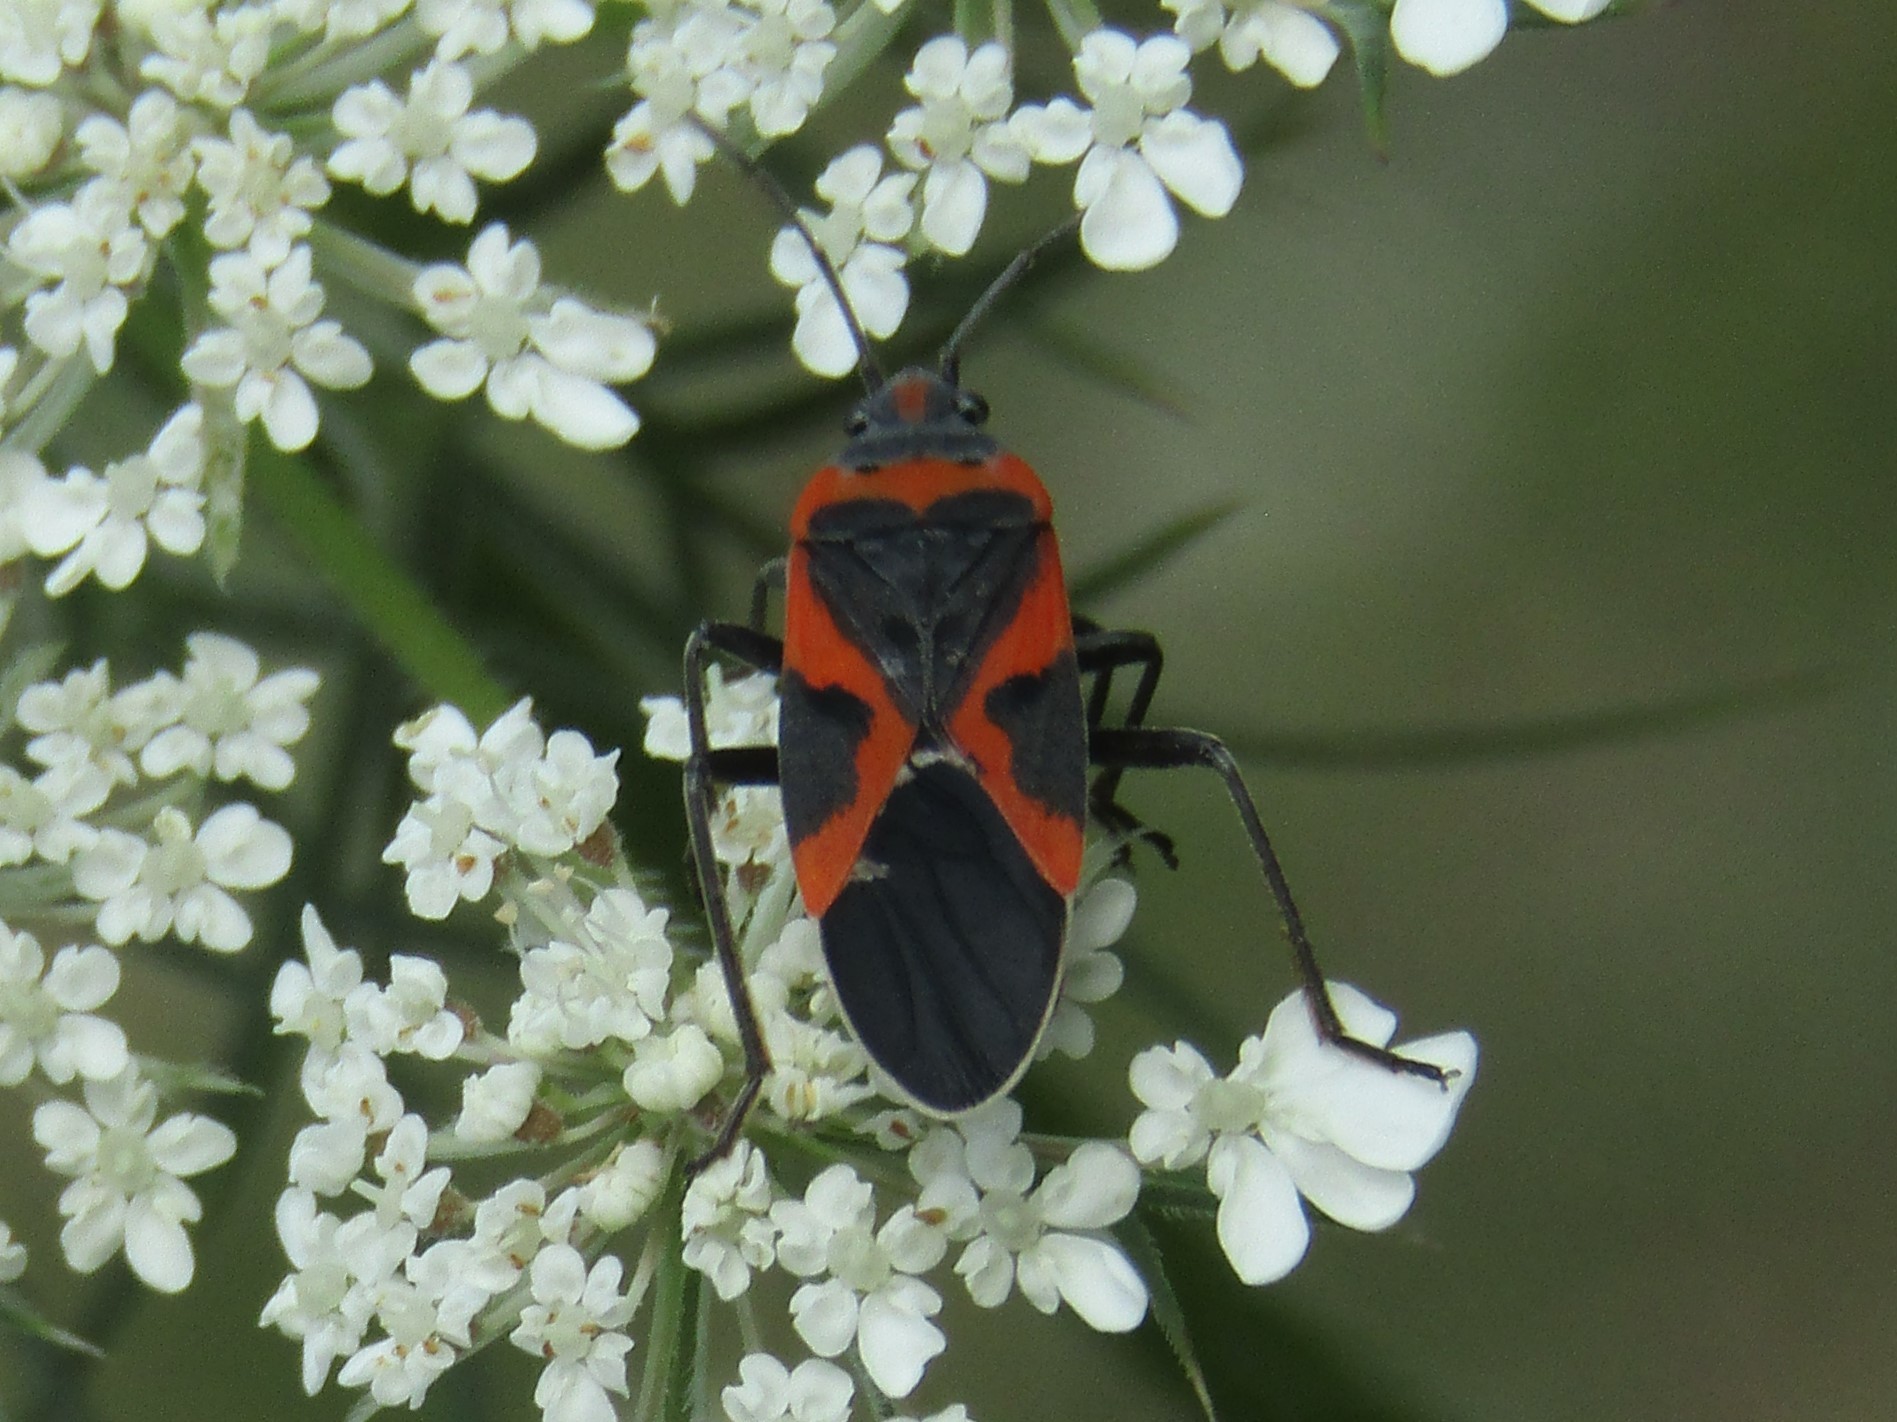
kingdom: Animalia
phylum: Arthropoda
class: Insecta
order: Hemiptera
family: Lygaeidae
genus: Lygaeus
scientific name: Lygaeus kalmii
